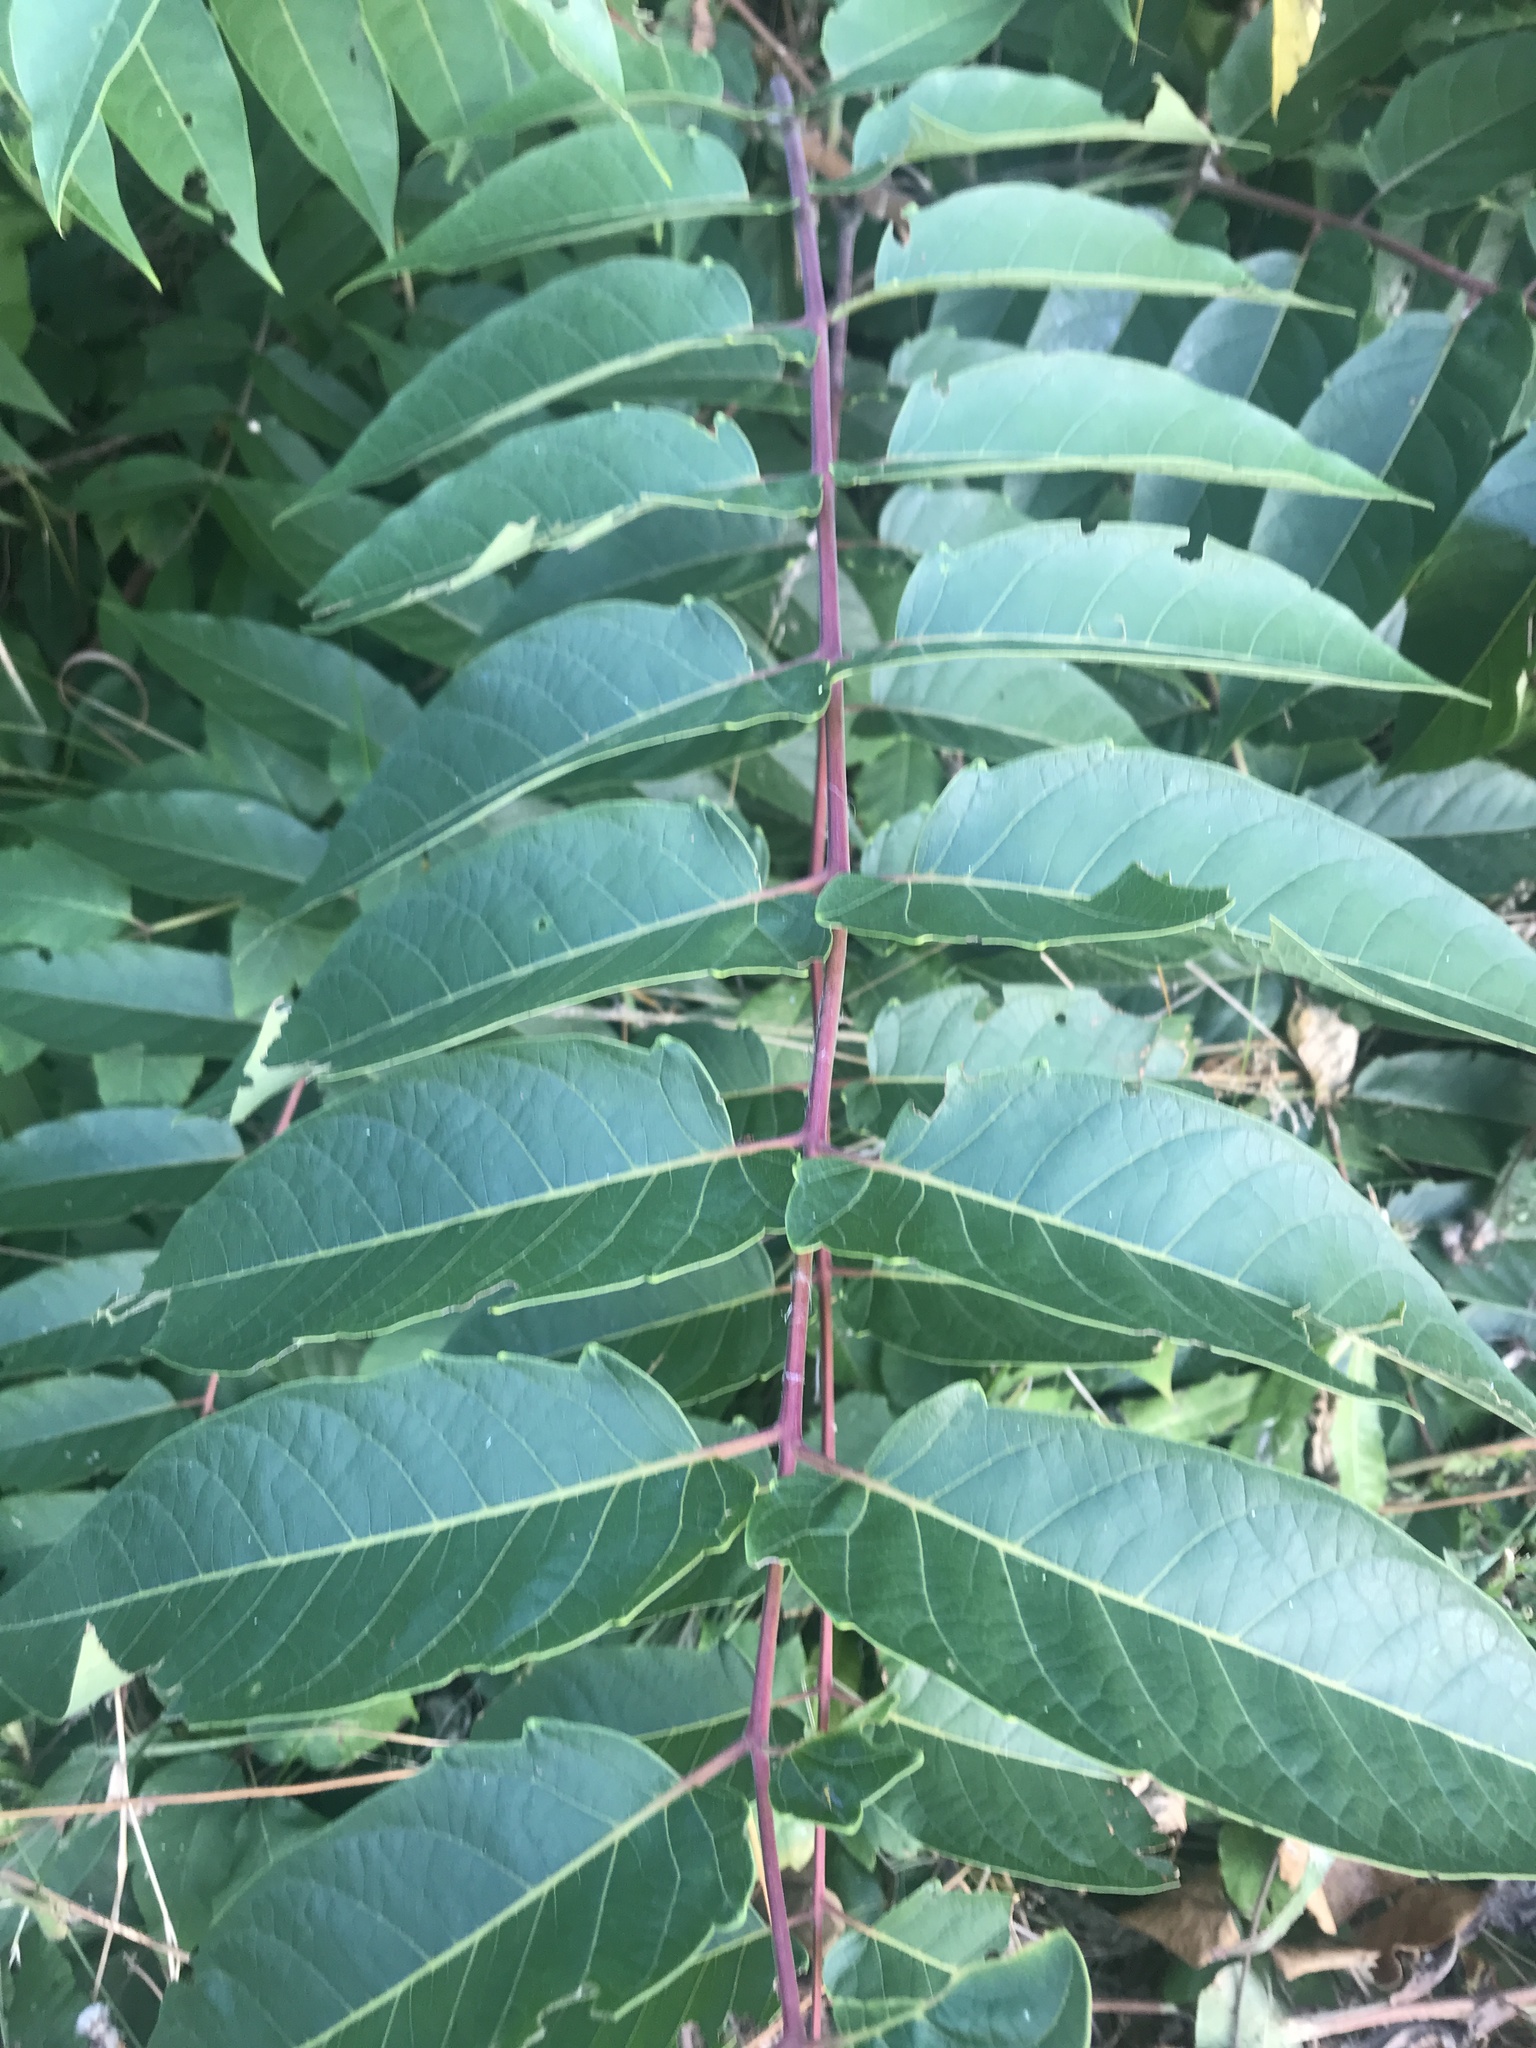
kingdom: Plantae
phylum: Tracheophyta
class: Magnoliopsida
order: Sapindales
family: Simaroubaceae
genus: Ailanthus
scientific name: Ailanthus altissima
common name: Tree-of-heaven
